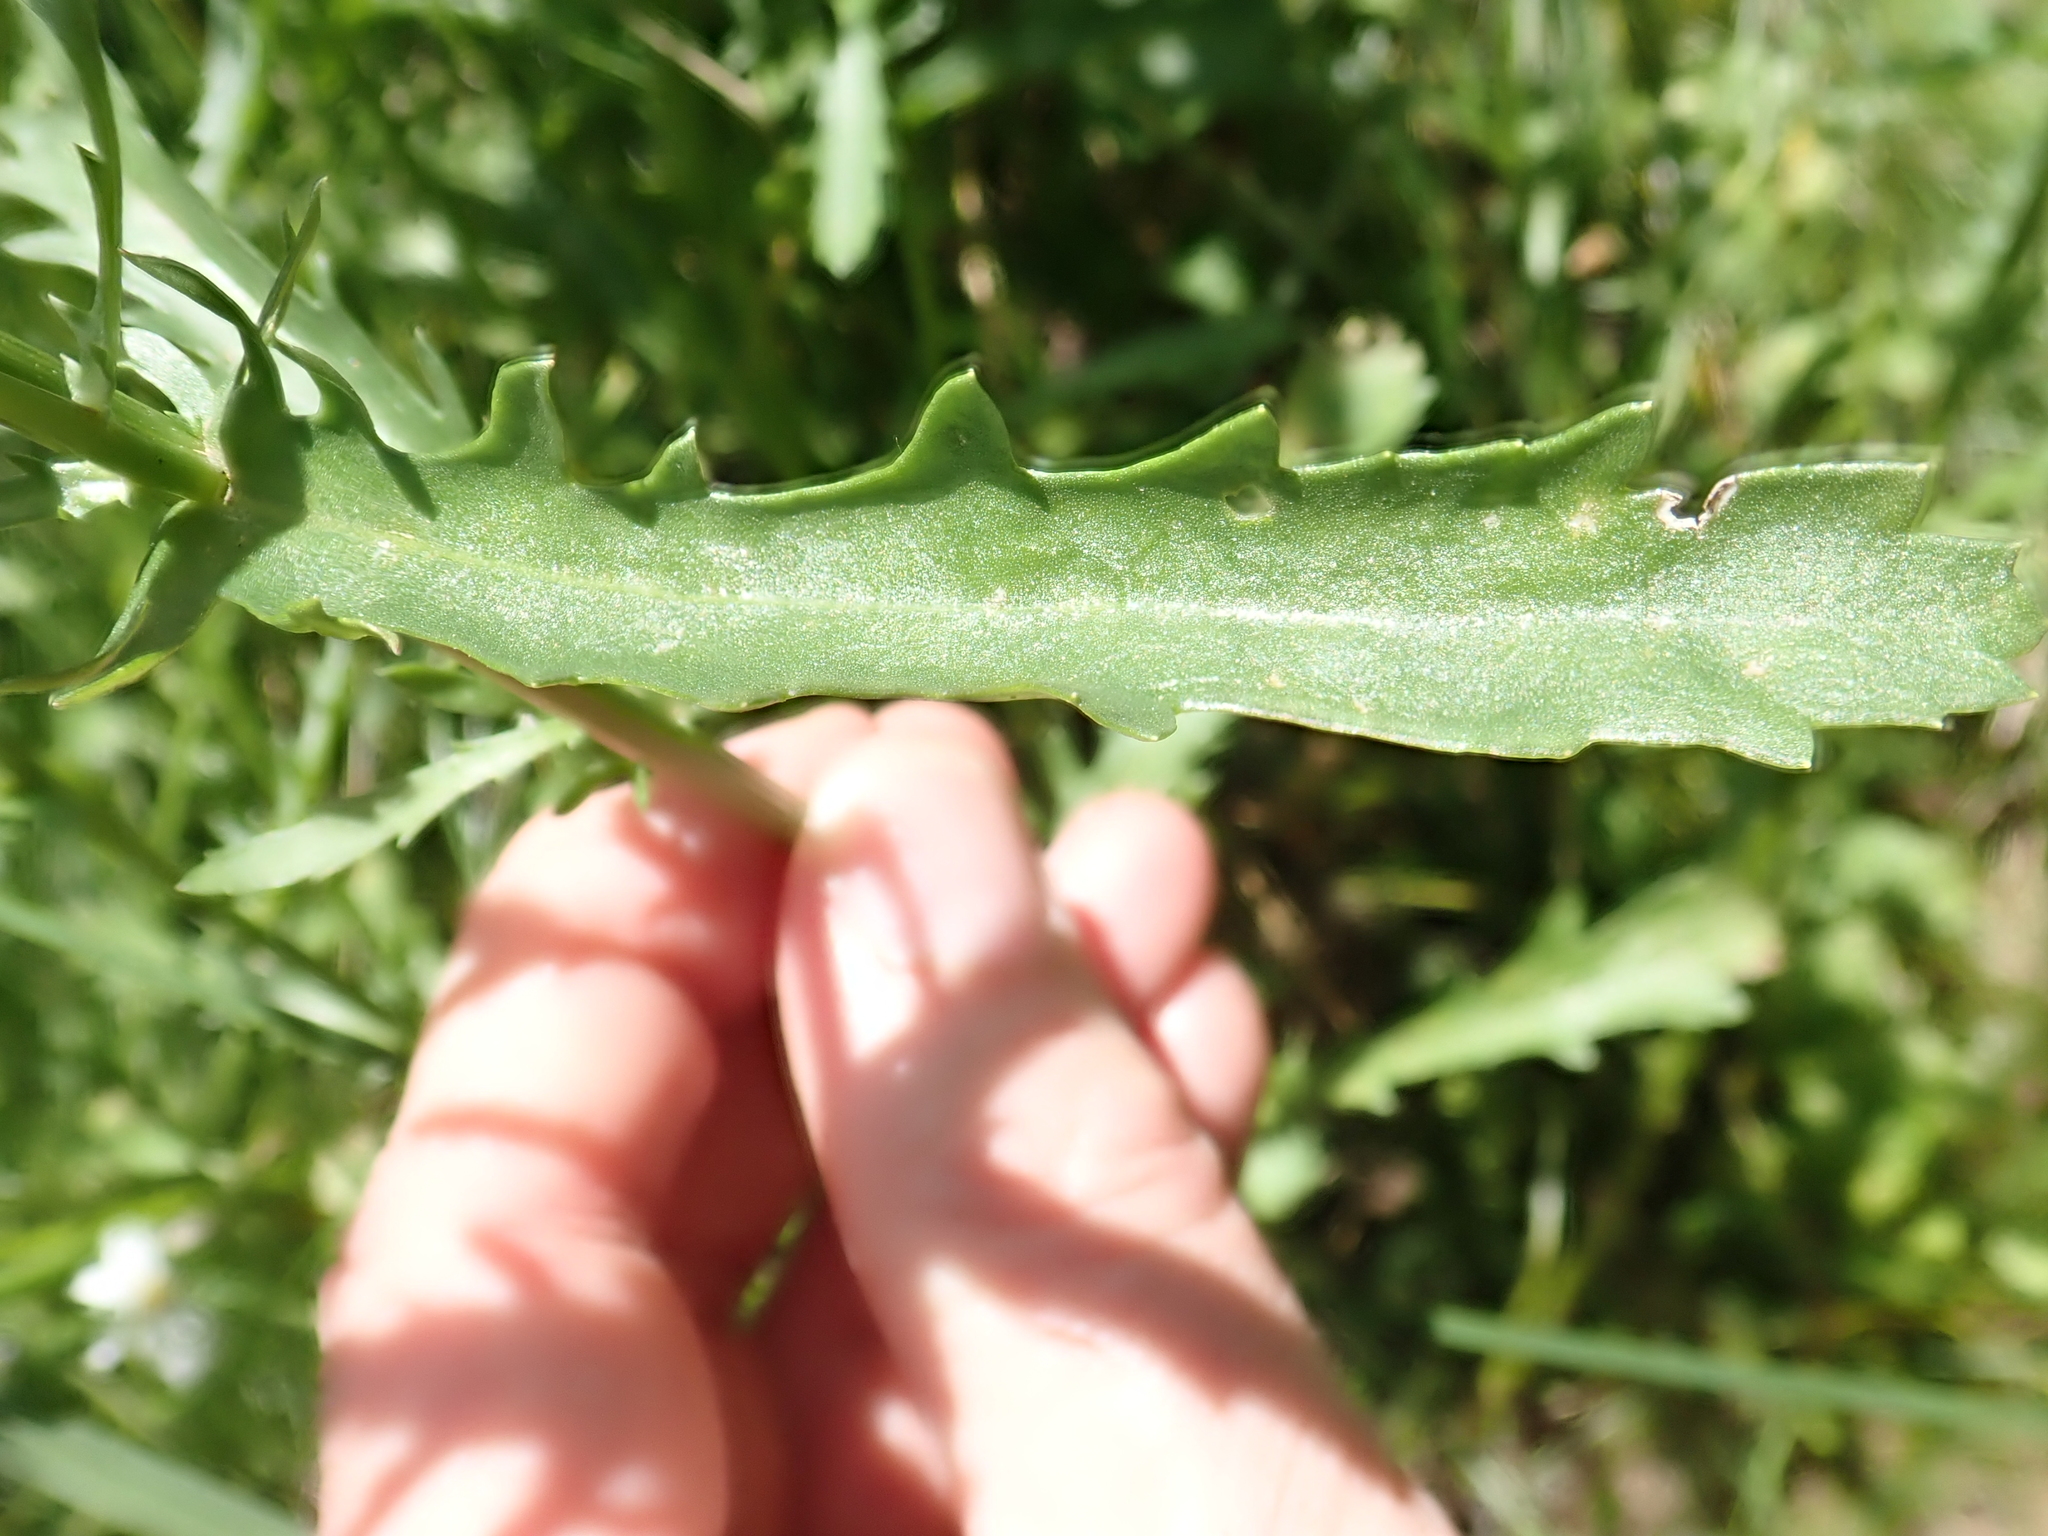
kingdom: Plantae
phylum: Tracheophyta
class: Magnoliopsida
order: Asterales
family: Asteraceae
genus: Leucanthemum
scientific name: Leucanthemum vulgare
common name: Oxeye daisy
